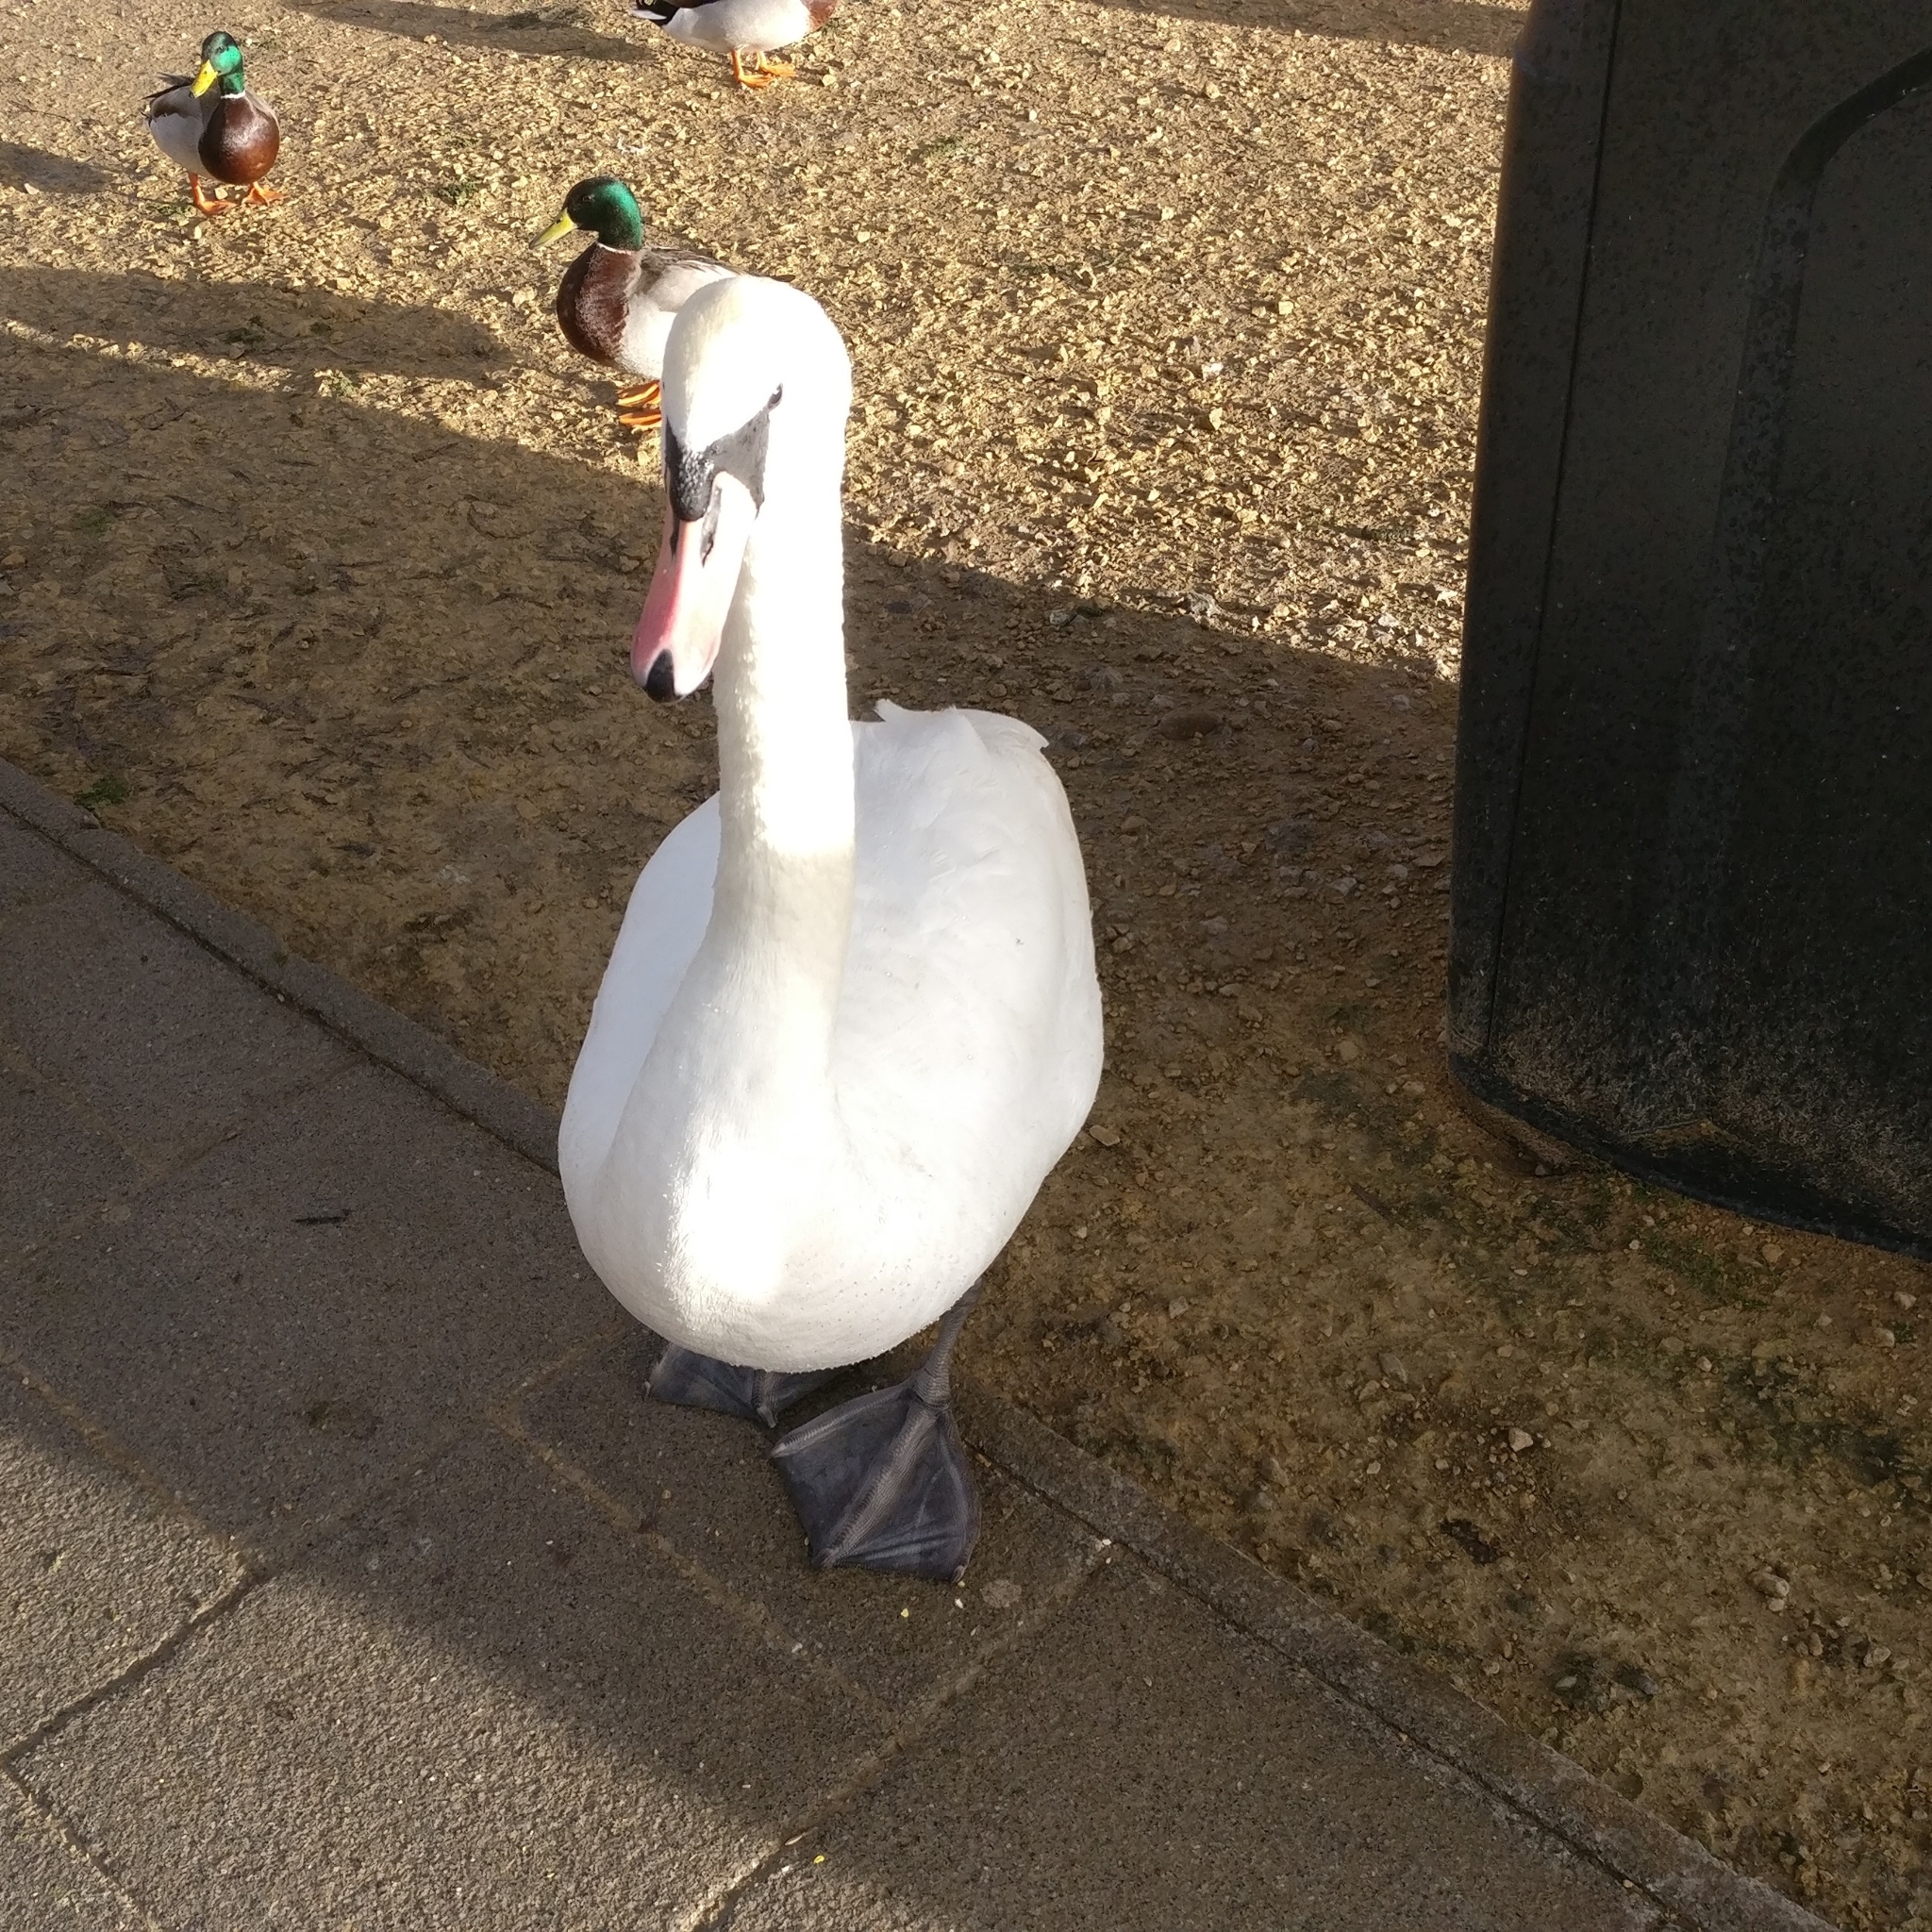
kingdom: Animalia
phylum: Chordata
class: Aves
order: Anseriformes
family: Anatidae
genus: Cygnus
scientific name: Cygnus olor
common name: Mute swan
